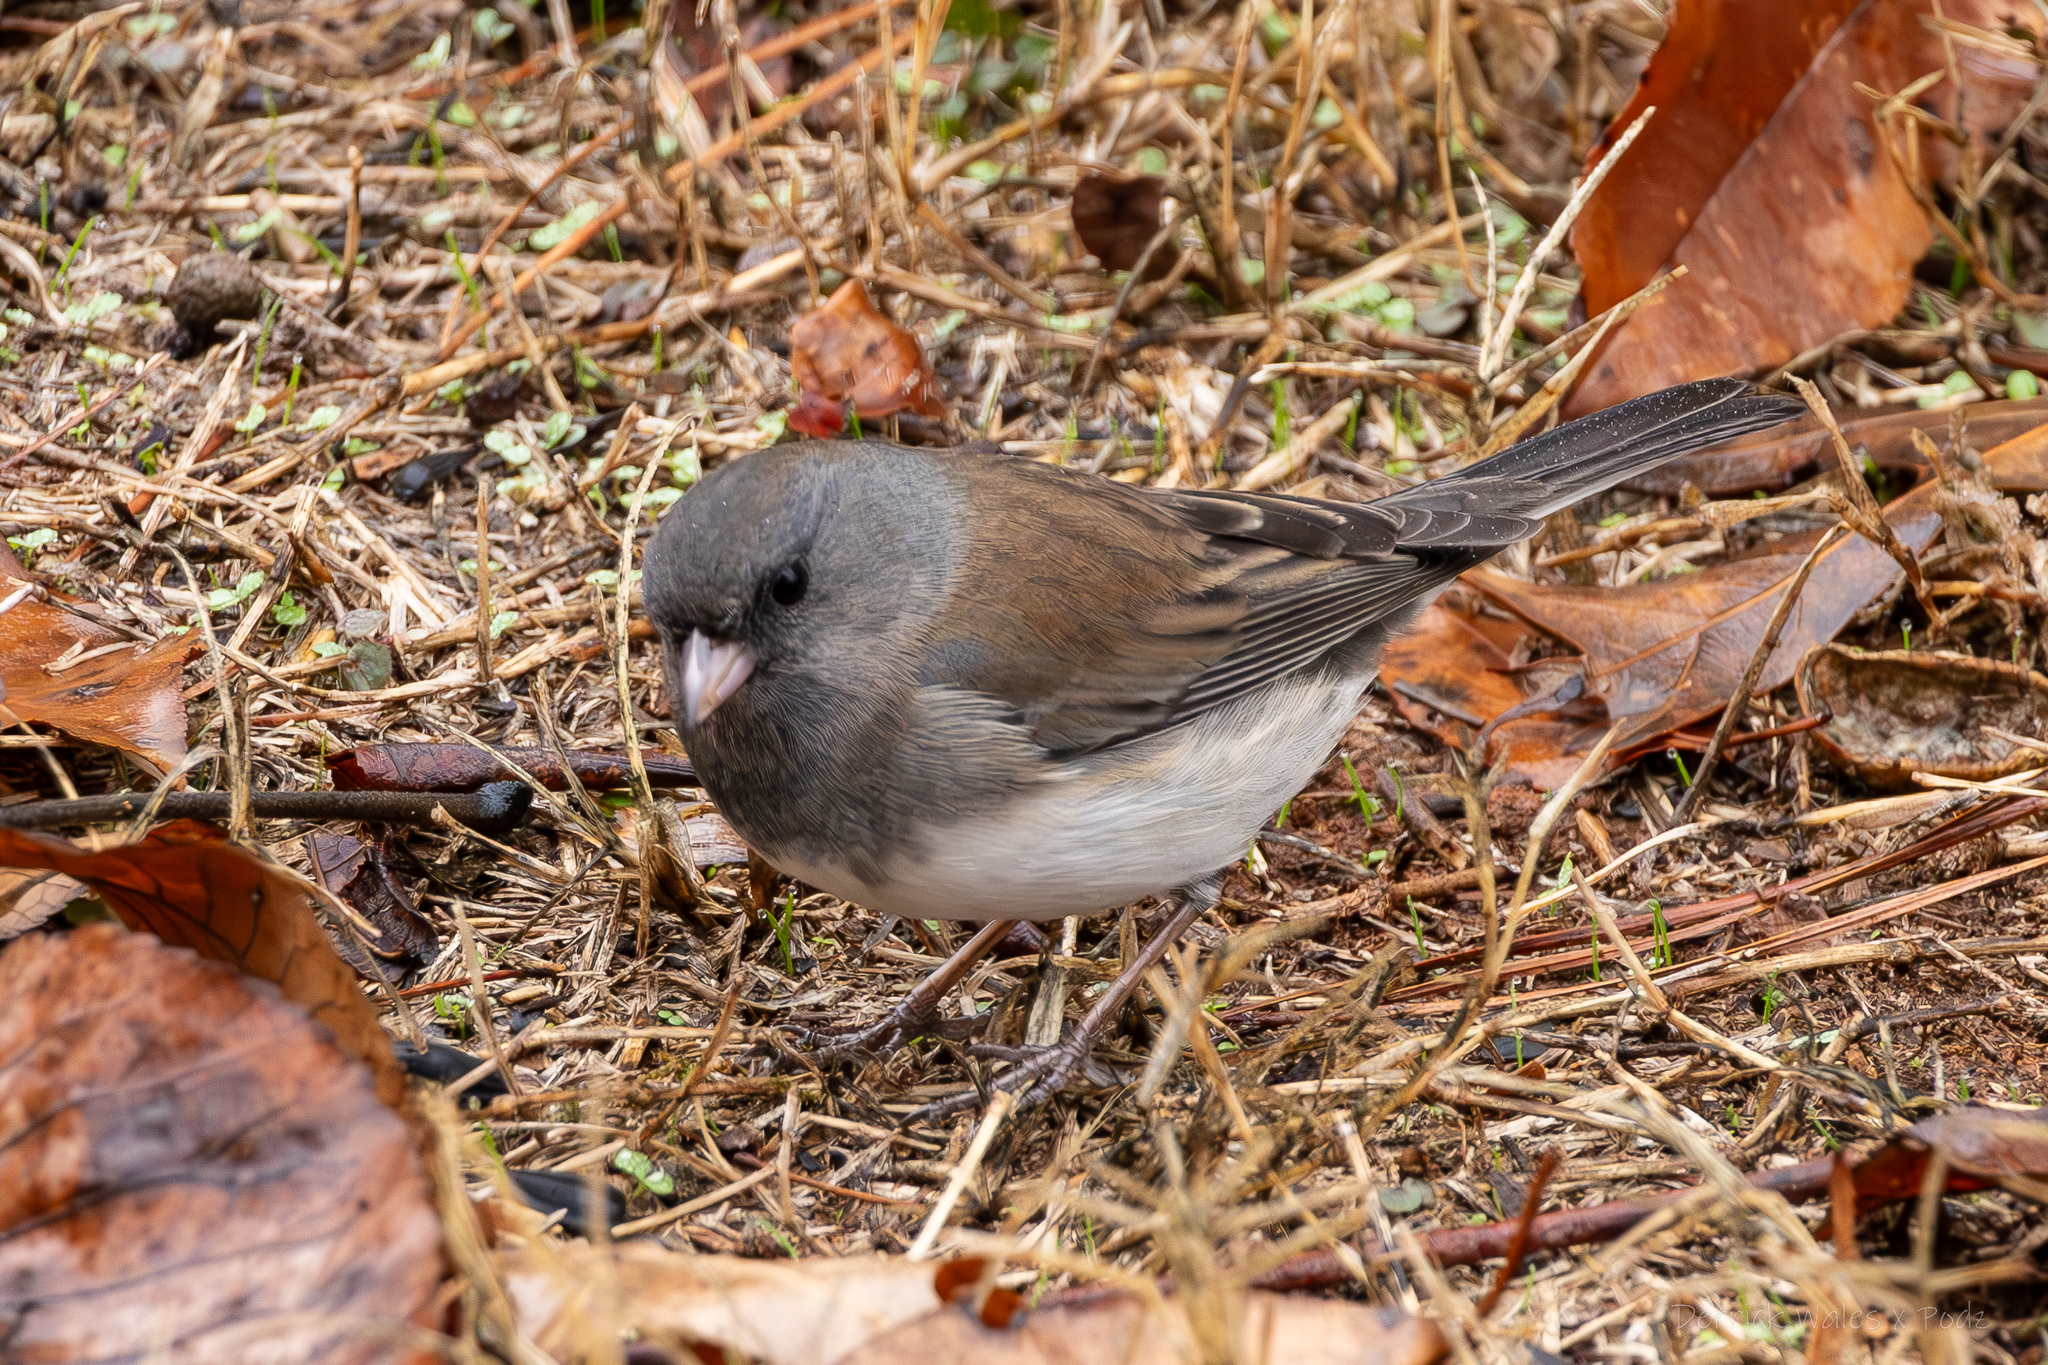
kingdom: Animalia
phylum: Chordata
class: Aves
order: Passeriformes
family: Passerellidae
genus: Junco
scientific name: Junco hyemalis
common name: Dark-eyed junco
